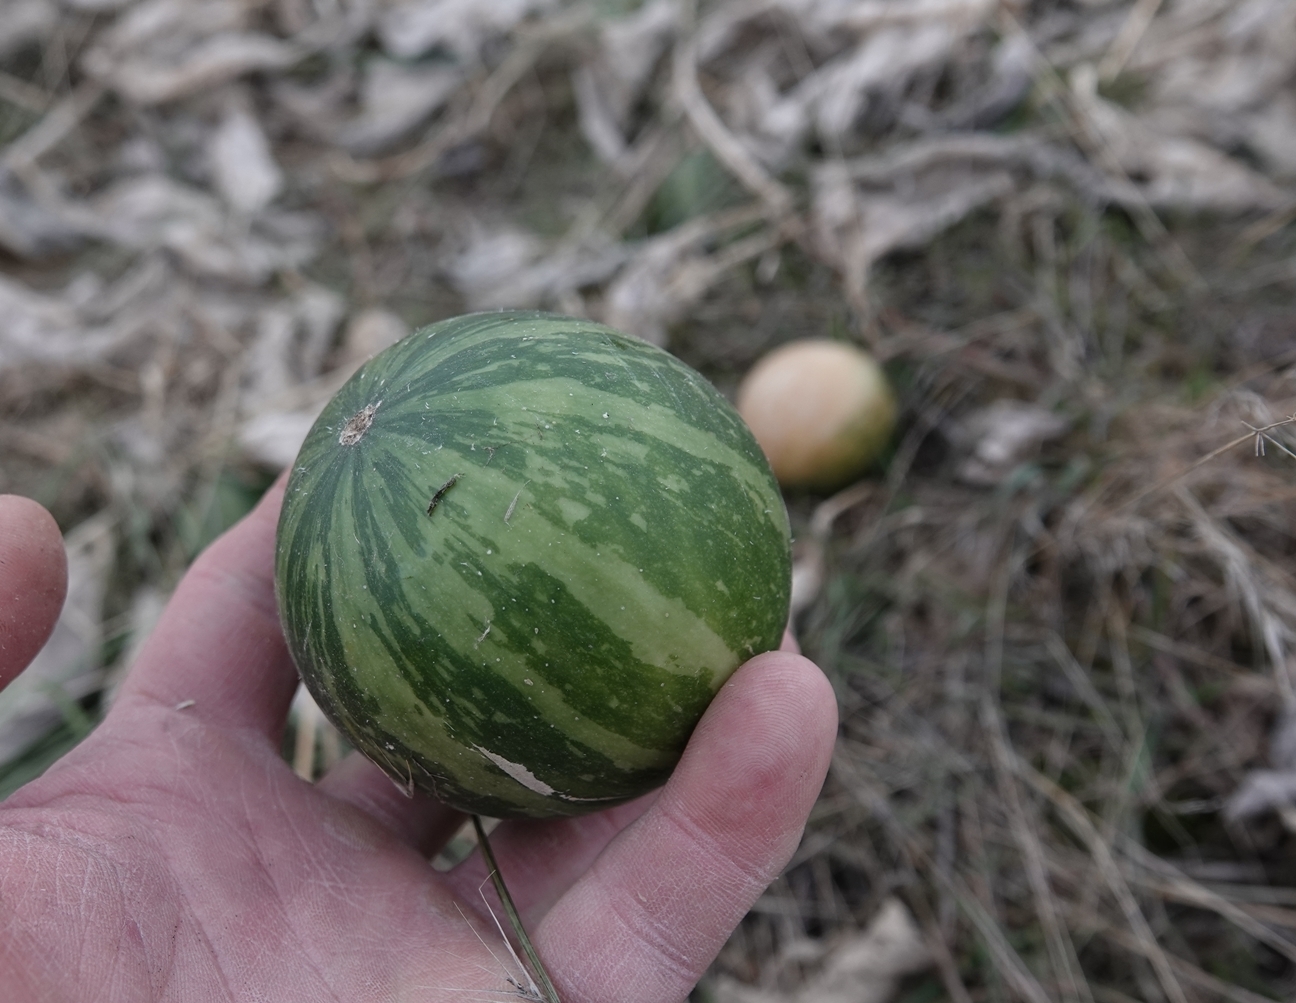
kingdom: Plantae
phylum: Tracheophyta
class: Magnoliopsida
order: Cucurbitales
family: Cucurbitaceae
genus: Cucurbita
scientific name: Cucurbita foetidissima
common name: Buffalo gourd
